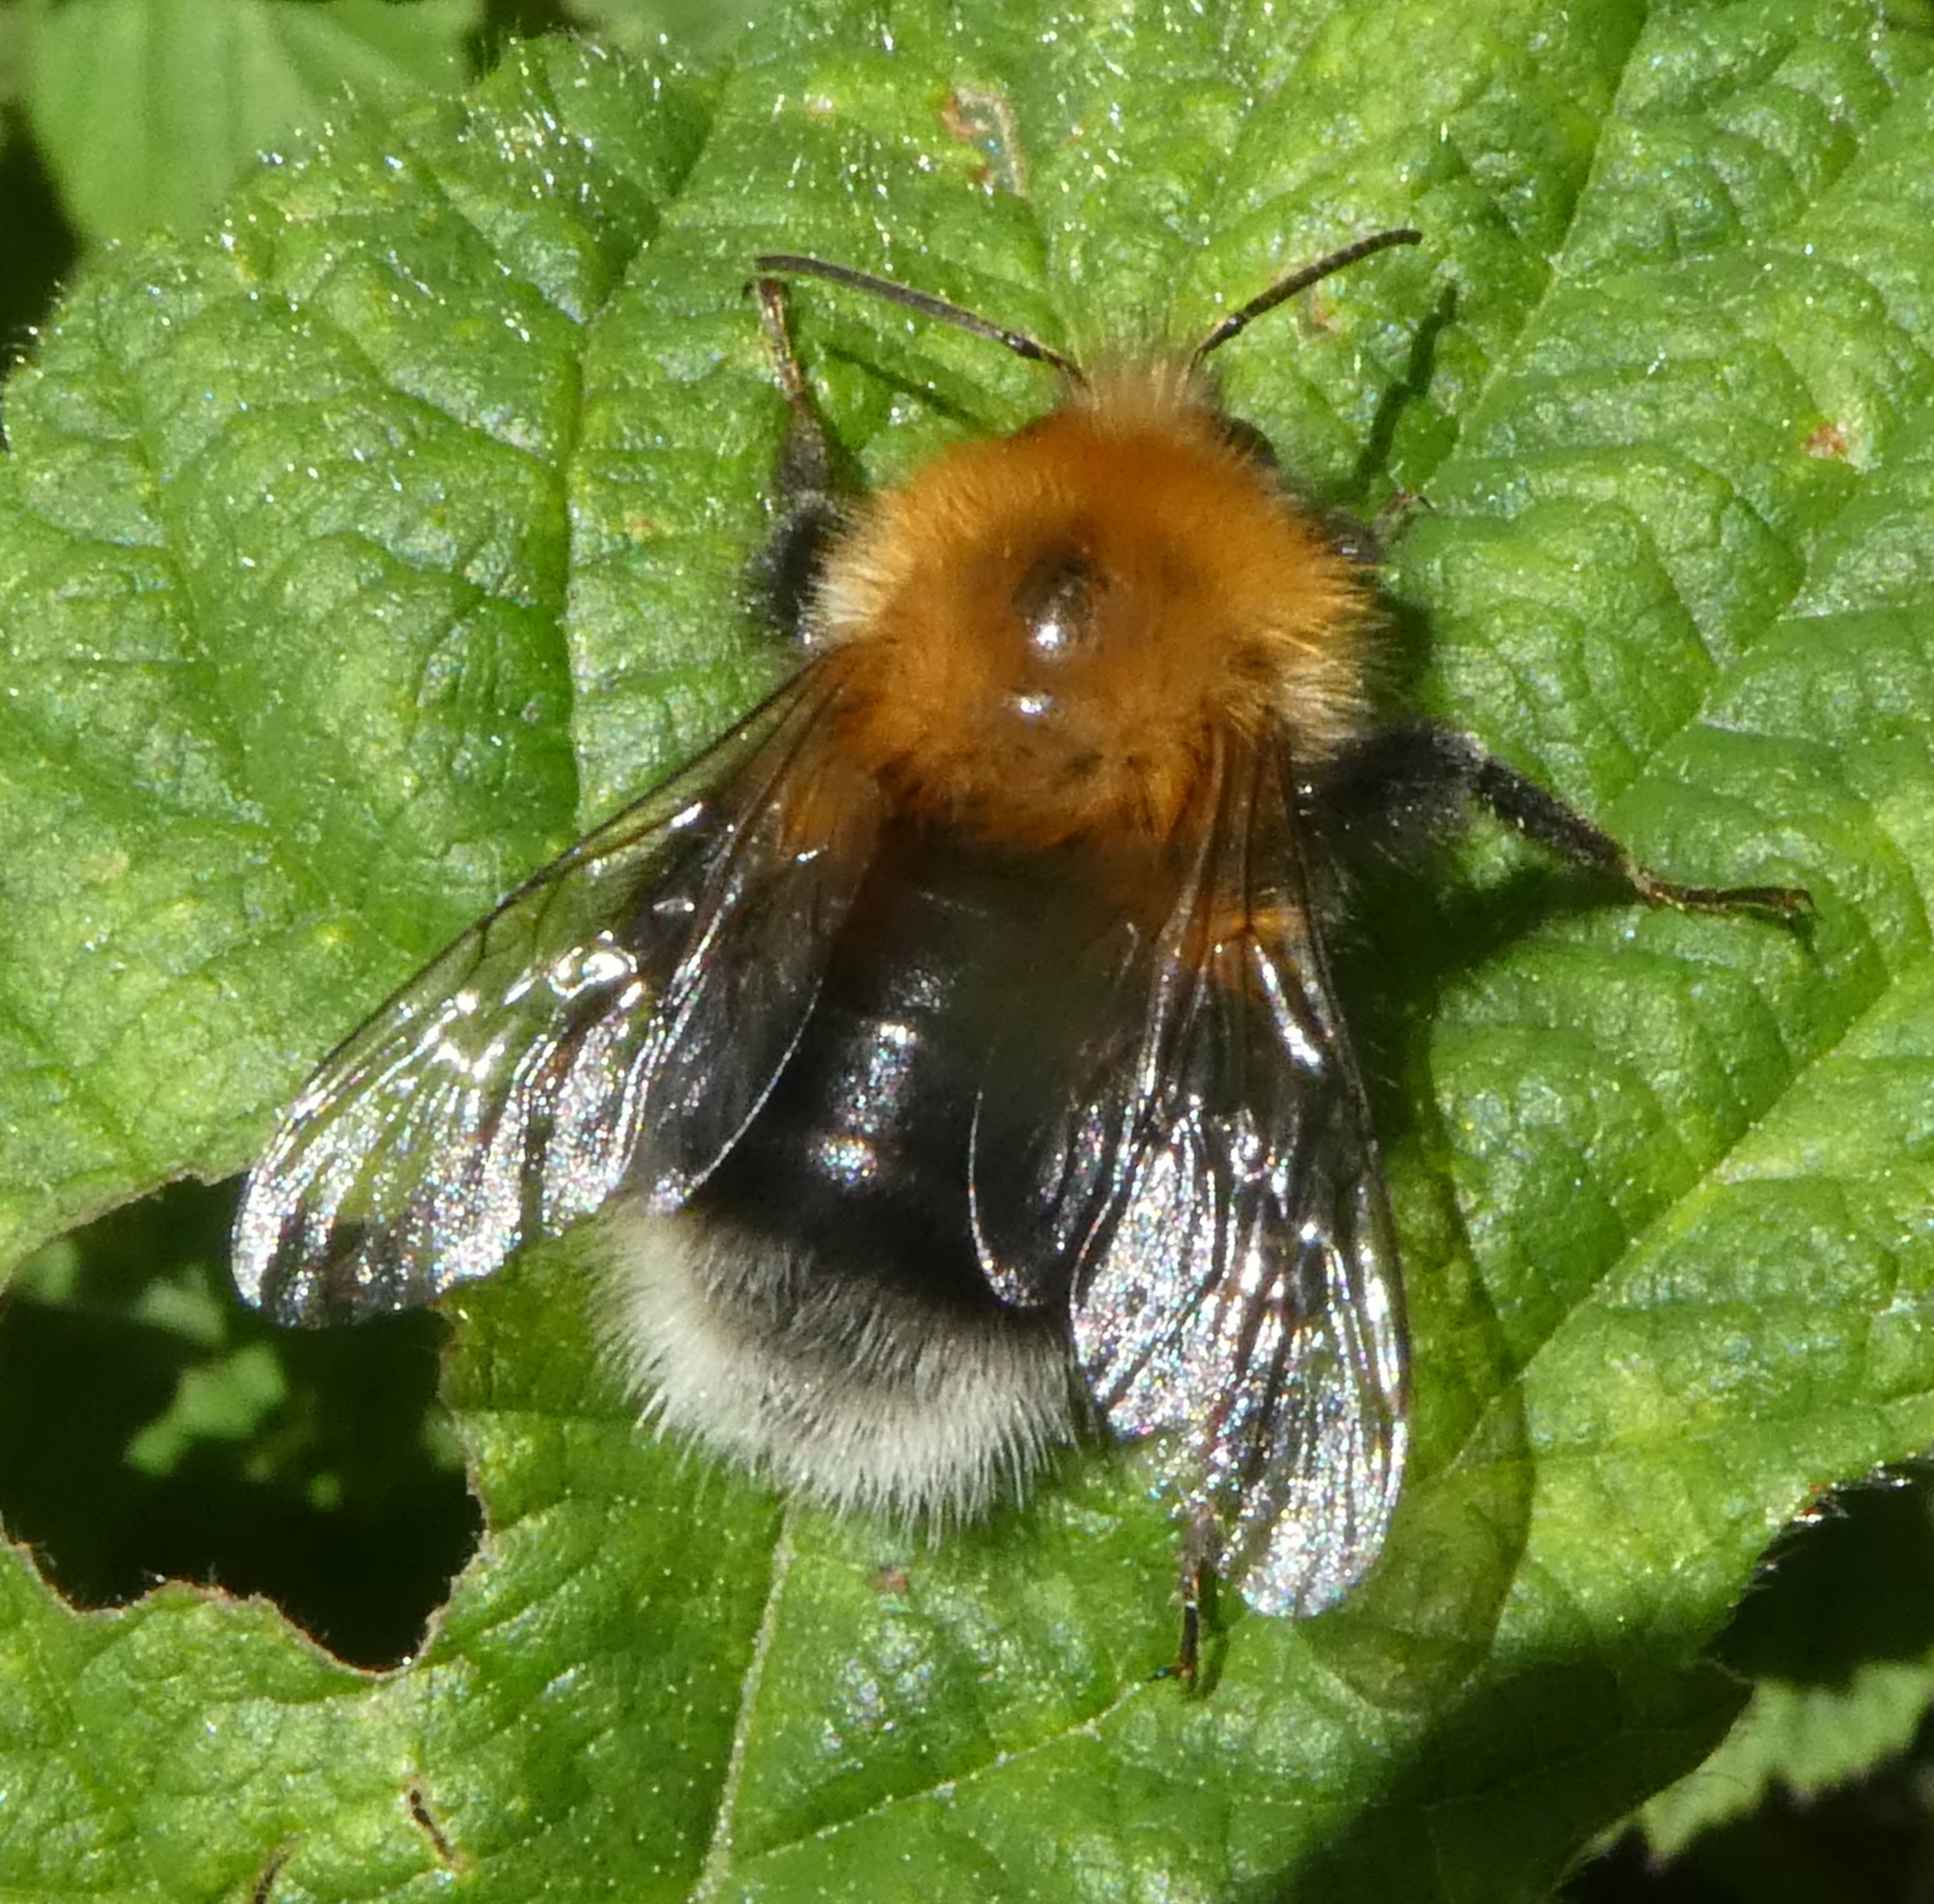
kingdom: Animalia
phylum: Arthropoda
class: Insecta
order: Hymenoptera
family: Apidae
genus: Bombus
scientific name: Bombus hypnorum
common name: New garden bumblebee
